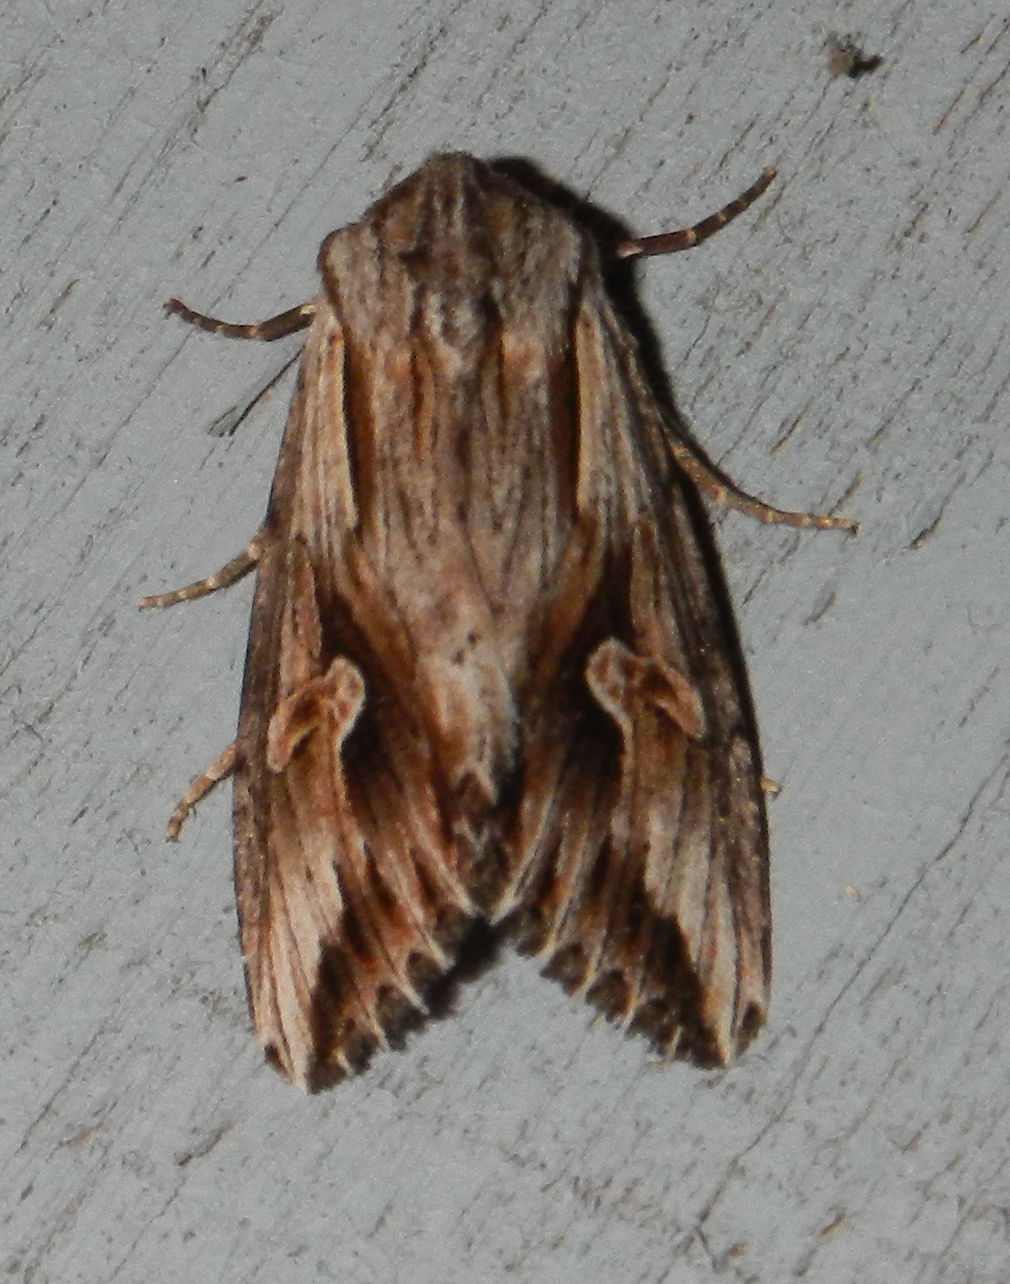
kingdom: Animalia
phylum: Arthropoda
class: Insecta
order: Lepidoptera
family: Noctuidae
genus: Nedra
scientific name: Nedra ramosula
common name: Gray half-spot
